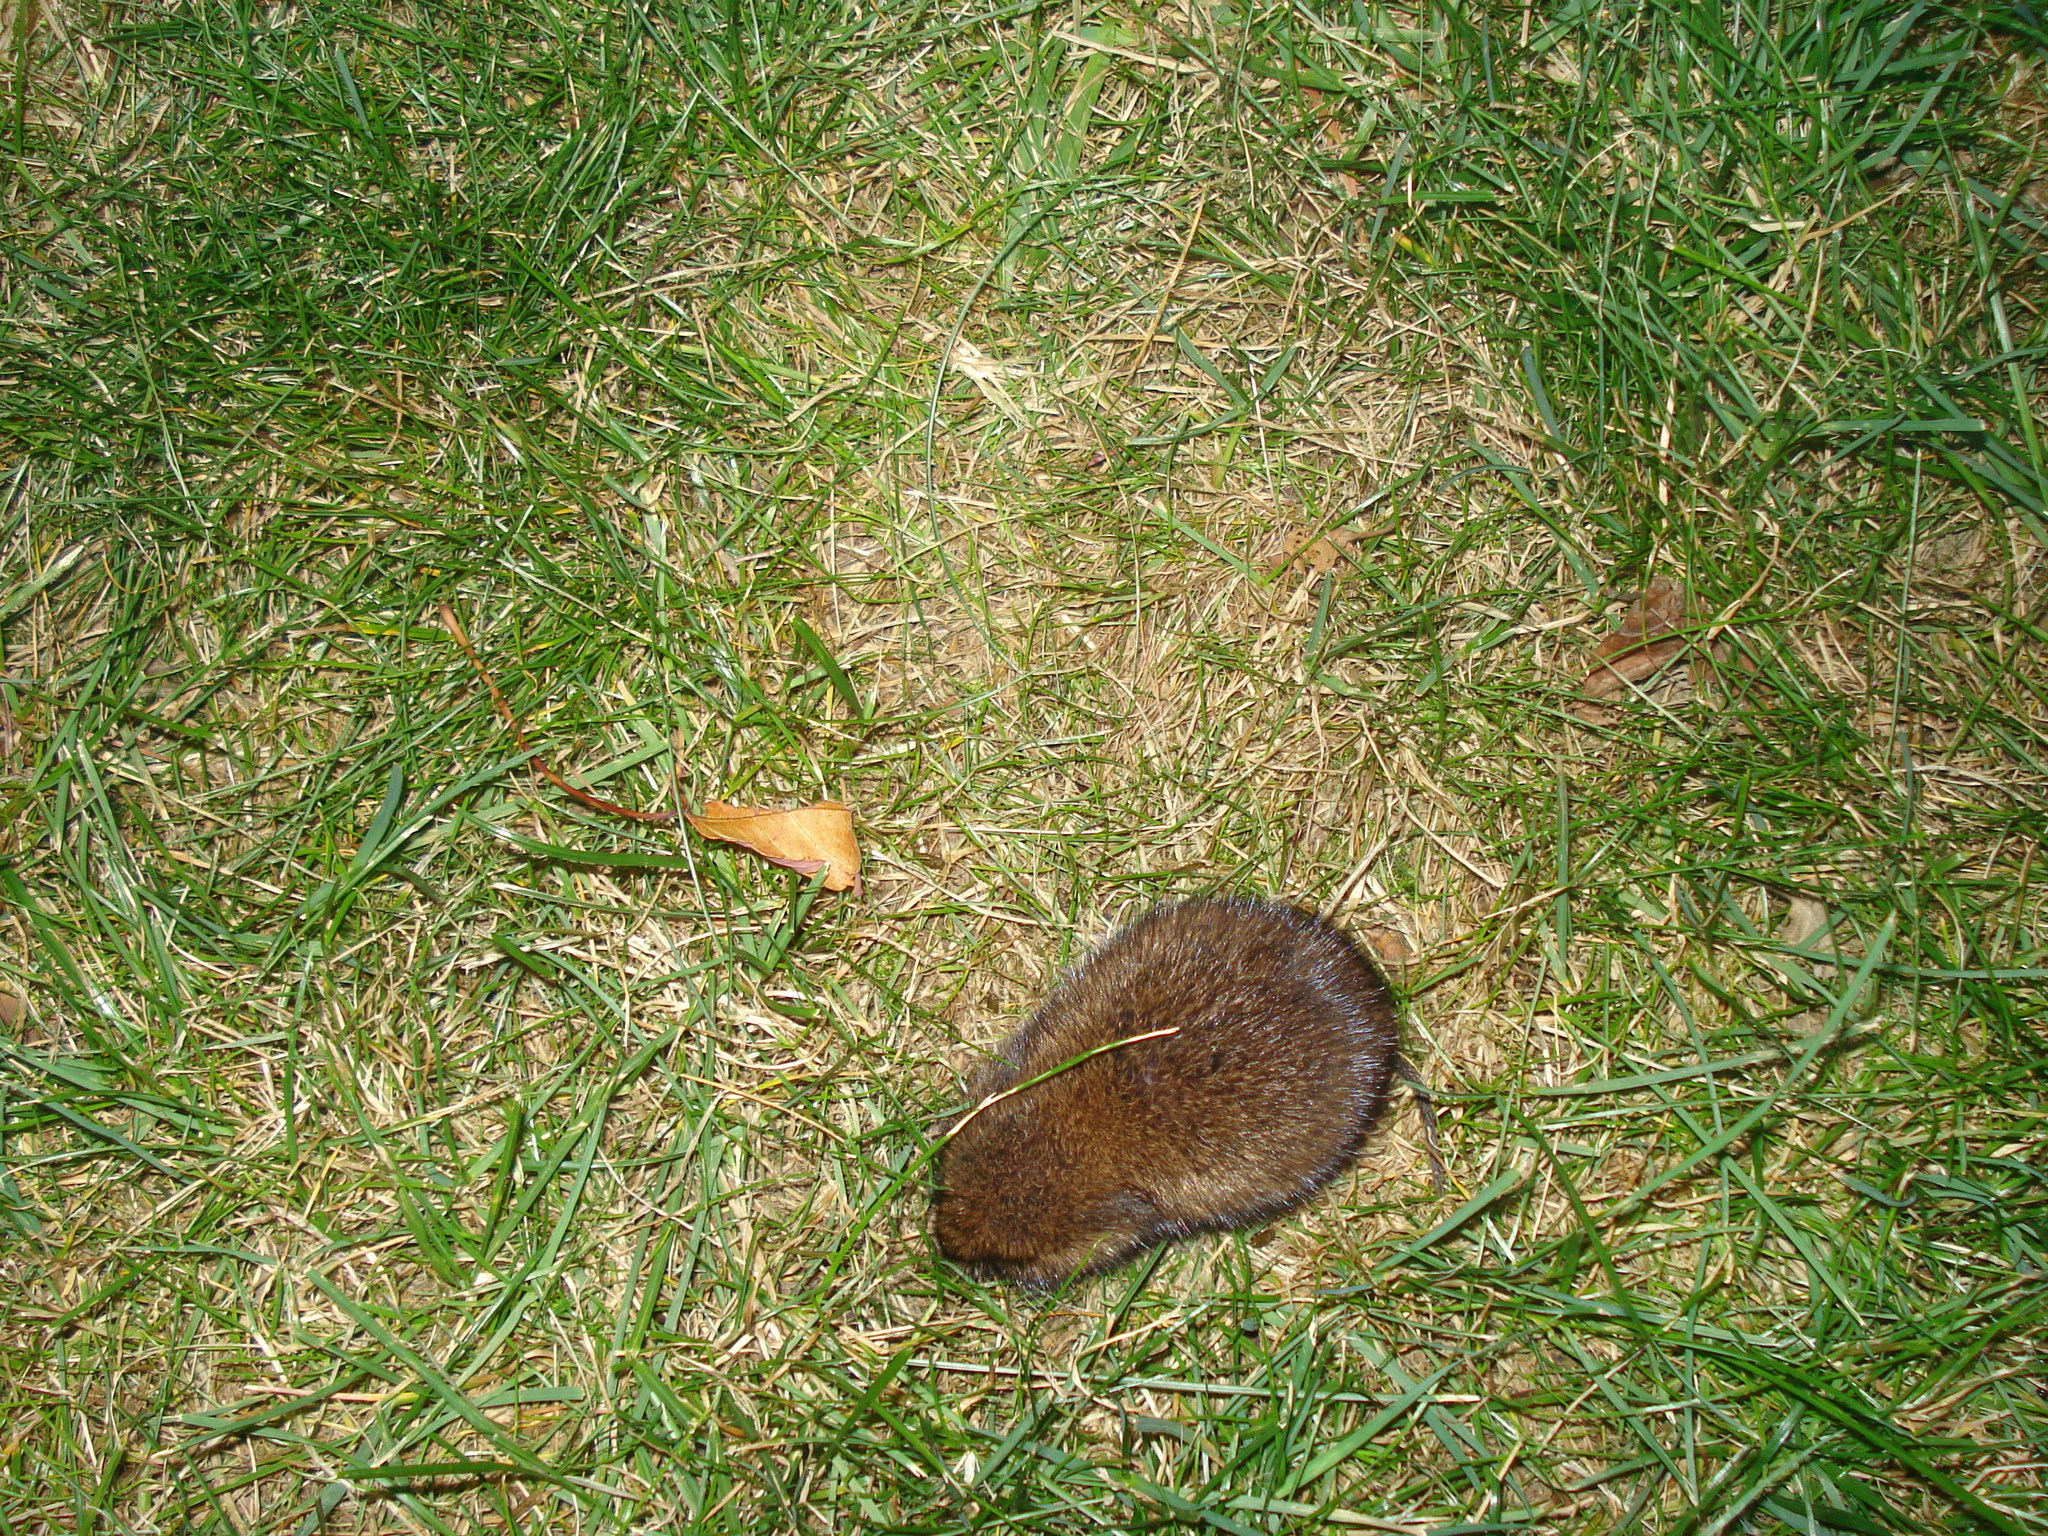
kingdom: Animalia
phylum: Chordata
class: Mammalia
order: Rodentia
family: Cricetidae
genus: Microtus
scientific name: Microtus pennsylvanicus
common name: Meadow vole
